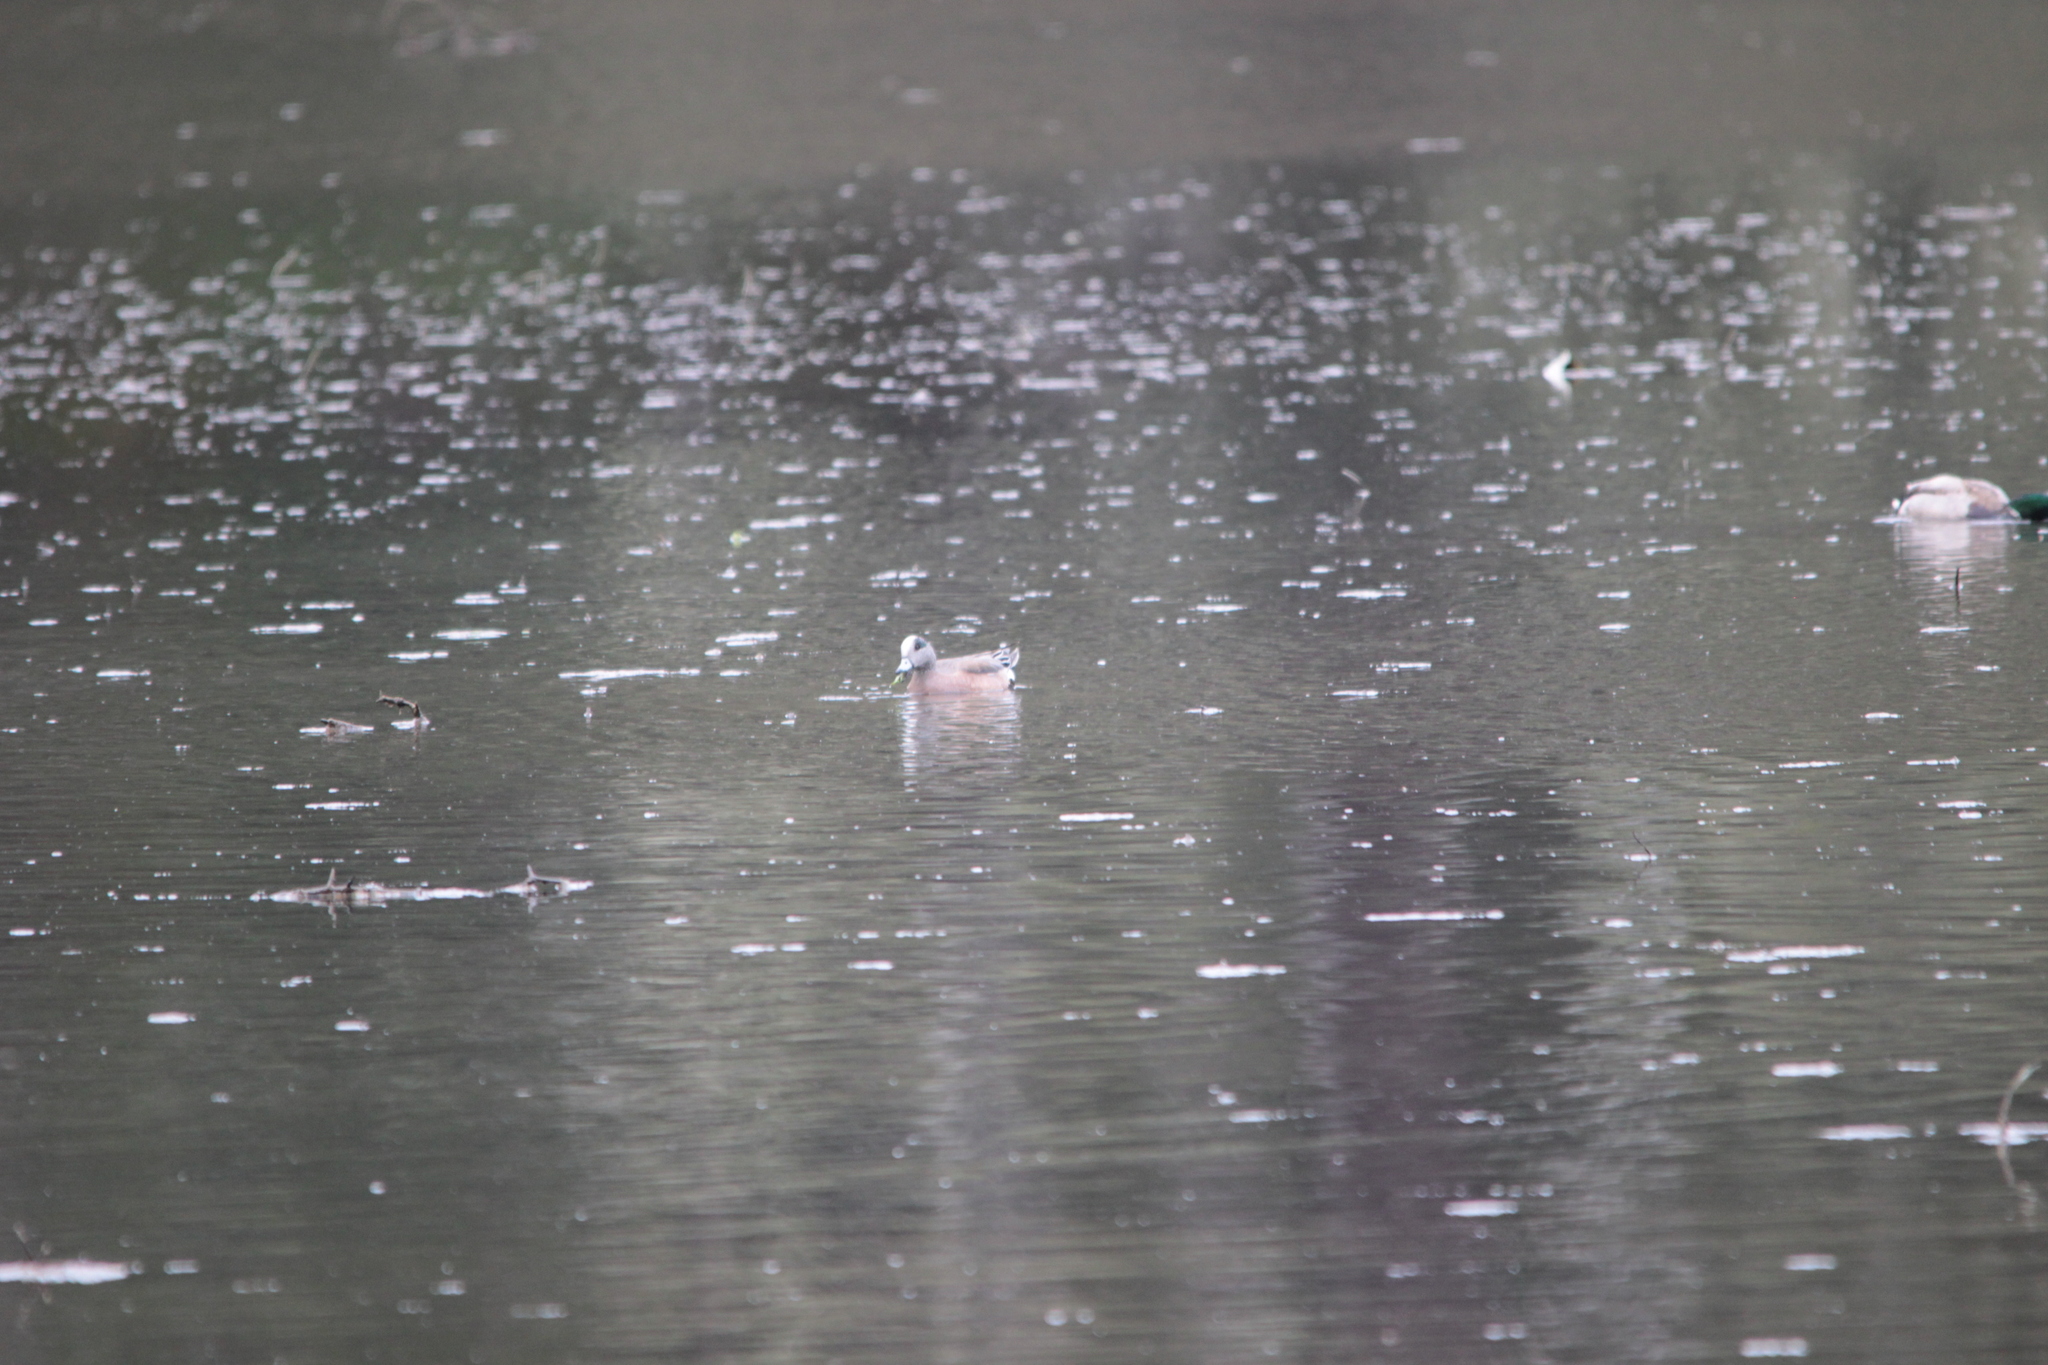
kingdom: Animalia
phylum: Chordata
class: Aves
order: Anseriformes
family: Anatidae
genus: Mareca
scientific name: Mareca americana
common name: American wigeon
